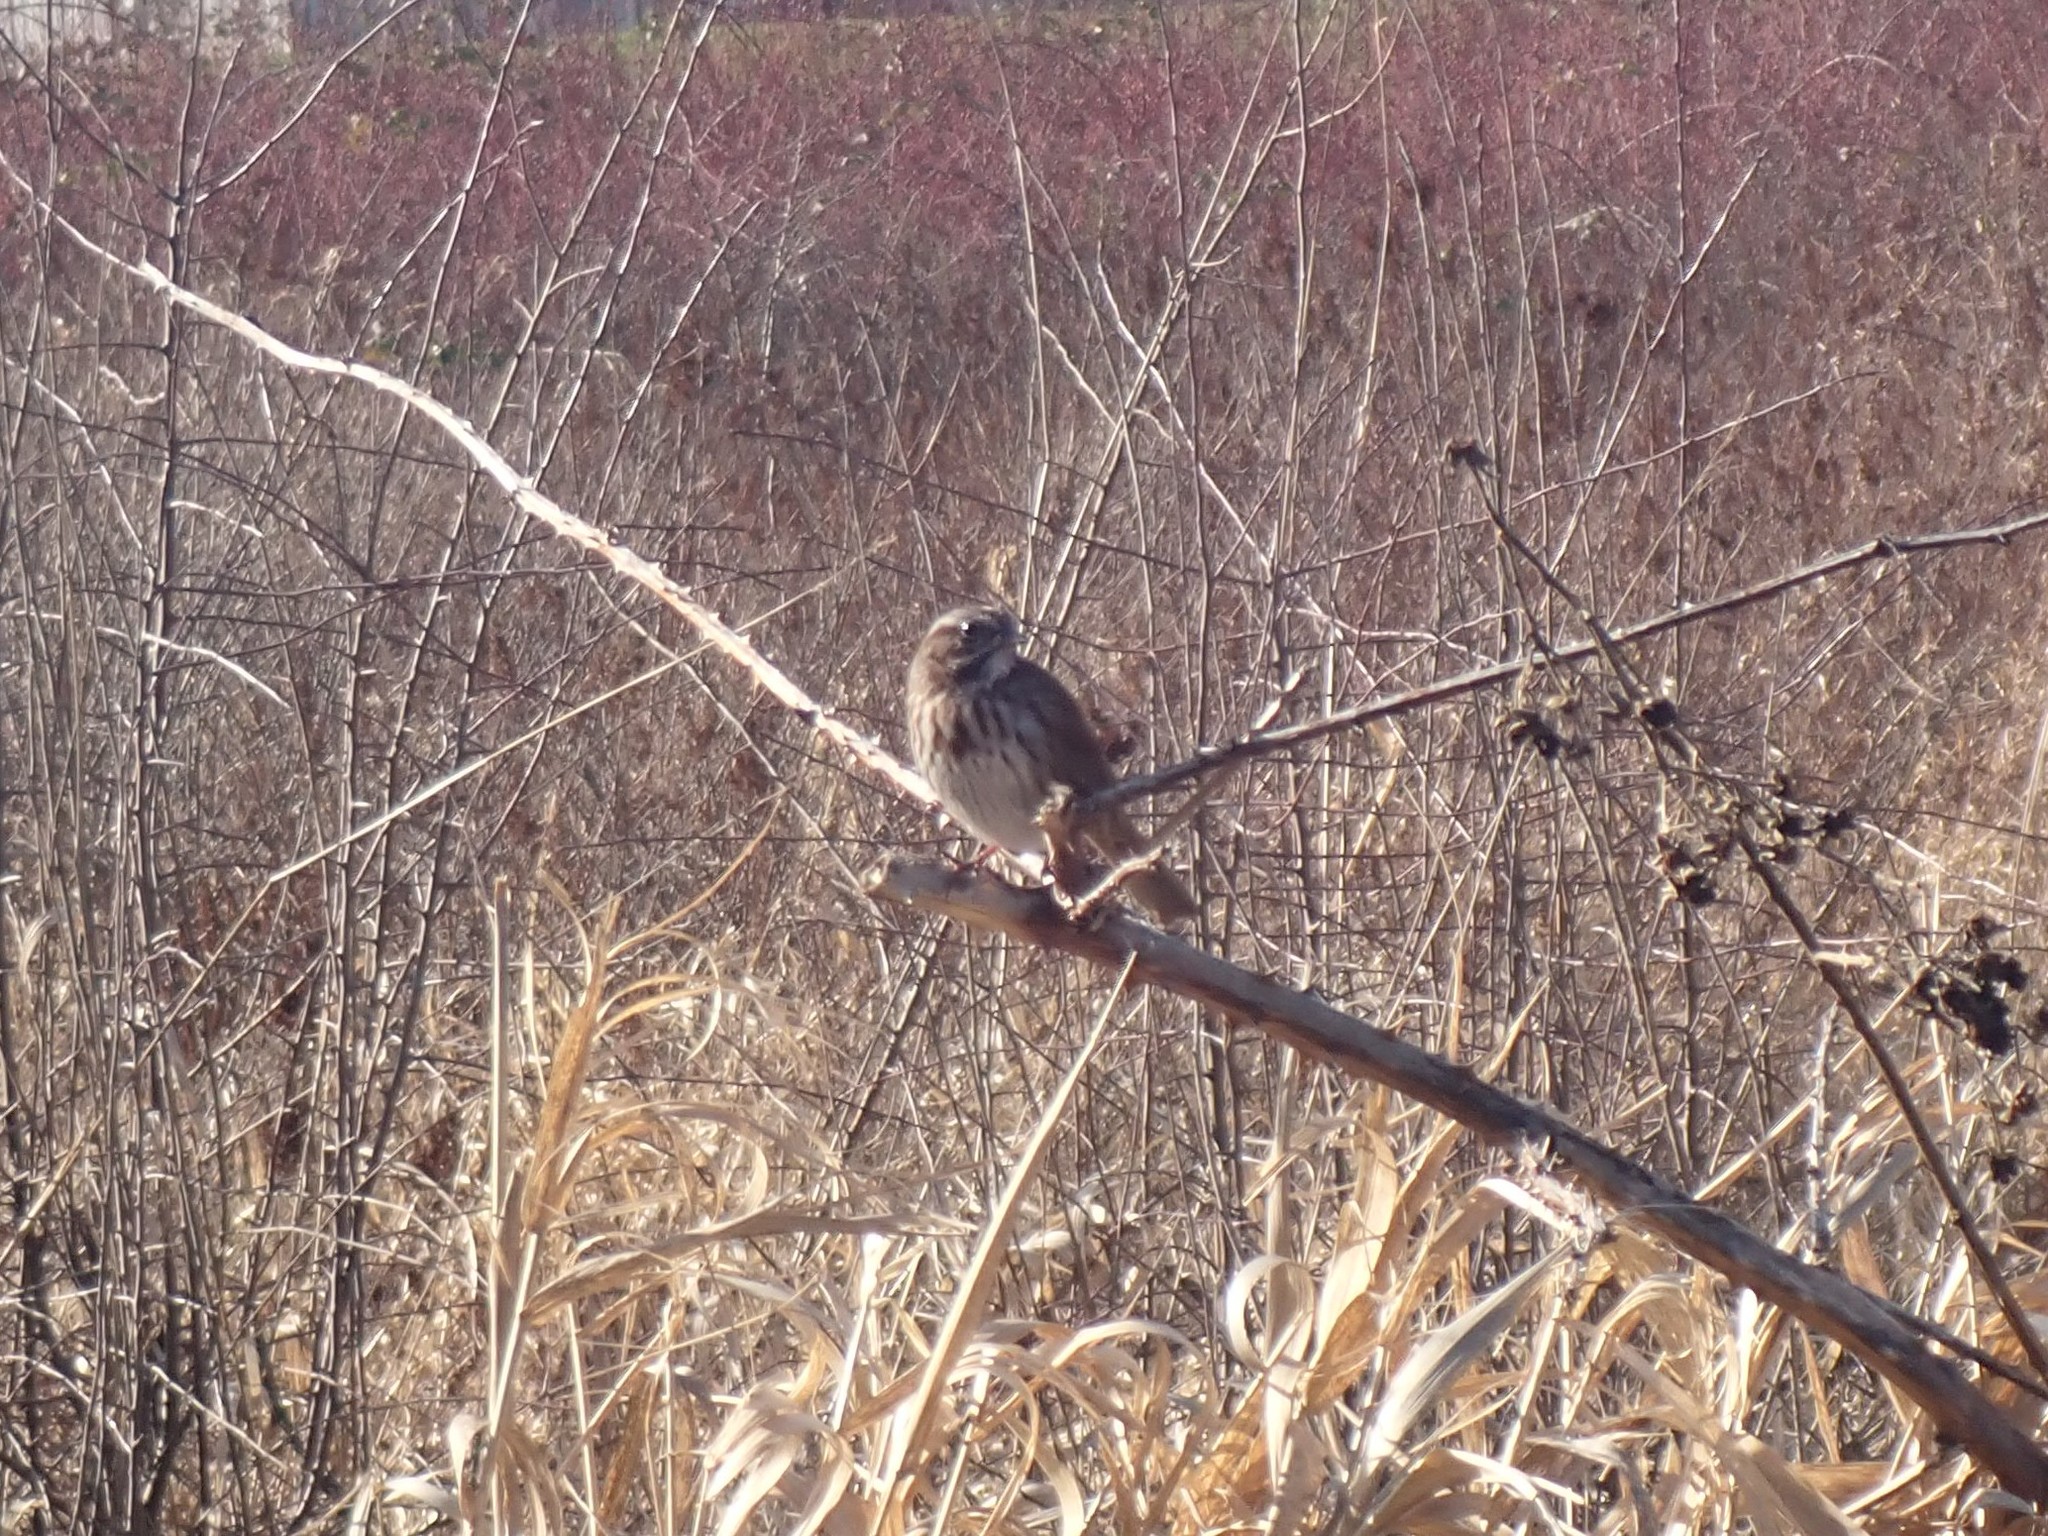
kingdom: Animalia
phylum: Chordata
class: Aves
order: Passeriformes
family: Passerellidae
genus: Melospiza
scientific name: Melospiza melodia
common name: Song sparrow
